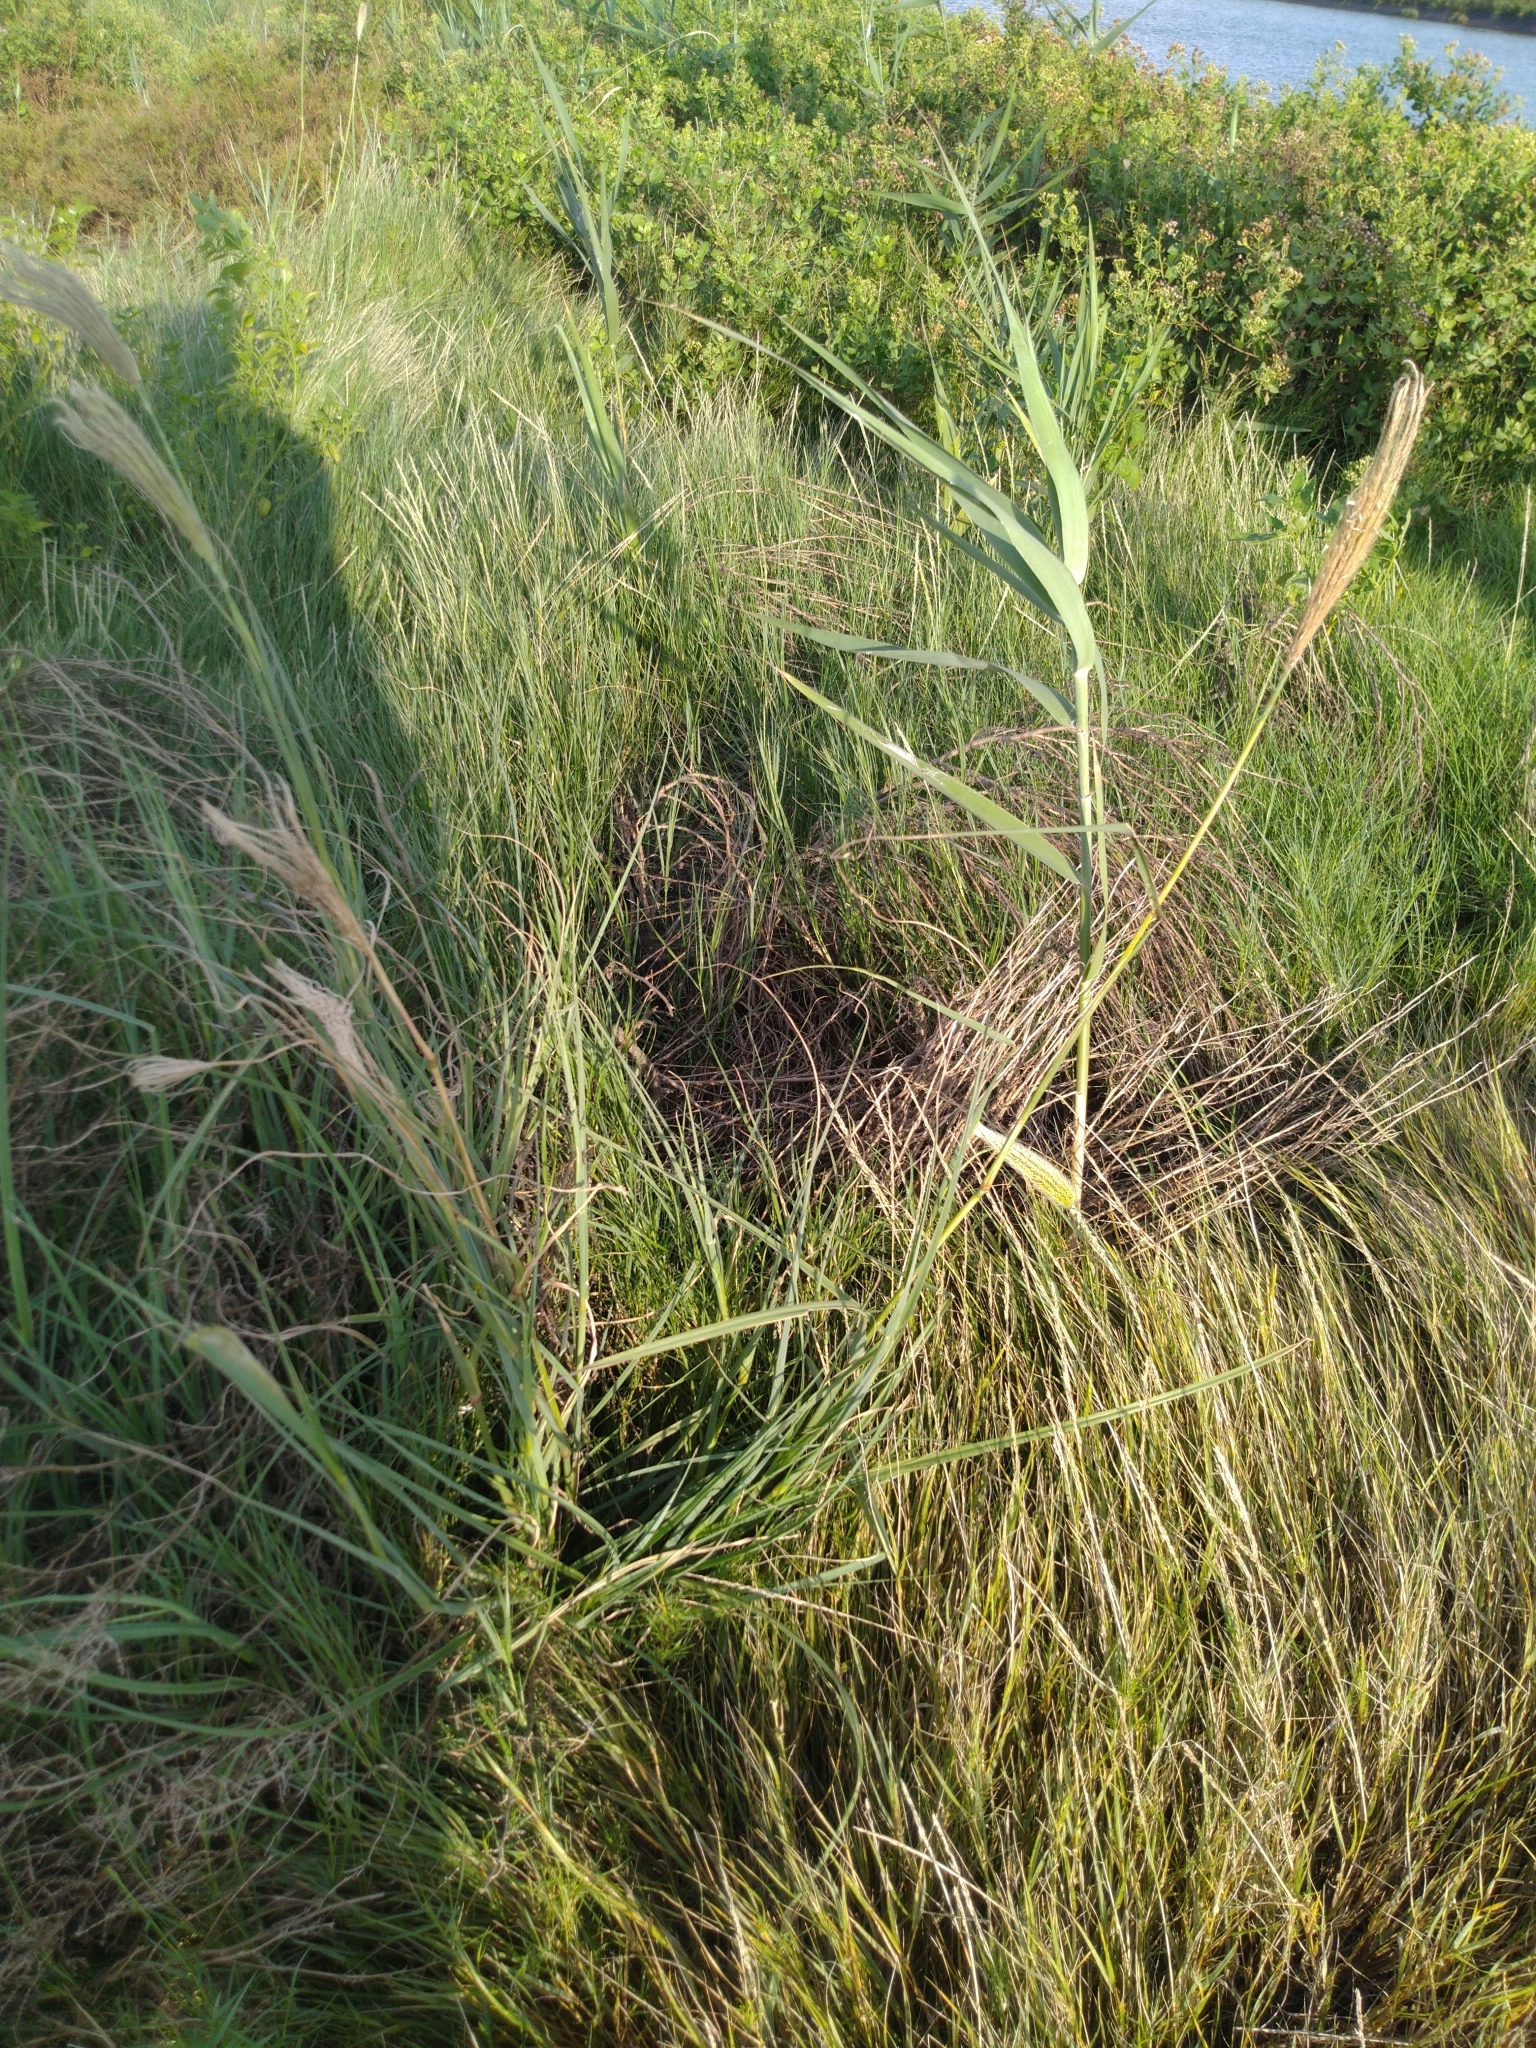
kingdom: Plantae
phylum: Tracheophyta
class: Liliopsida
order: Poales
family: Poaceae
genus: Chloris
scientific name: Chloris formosana
